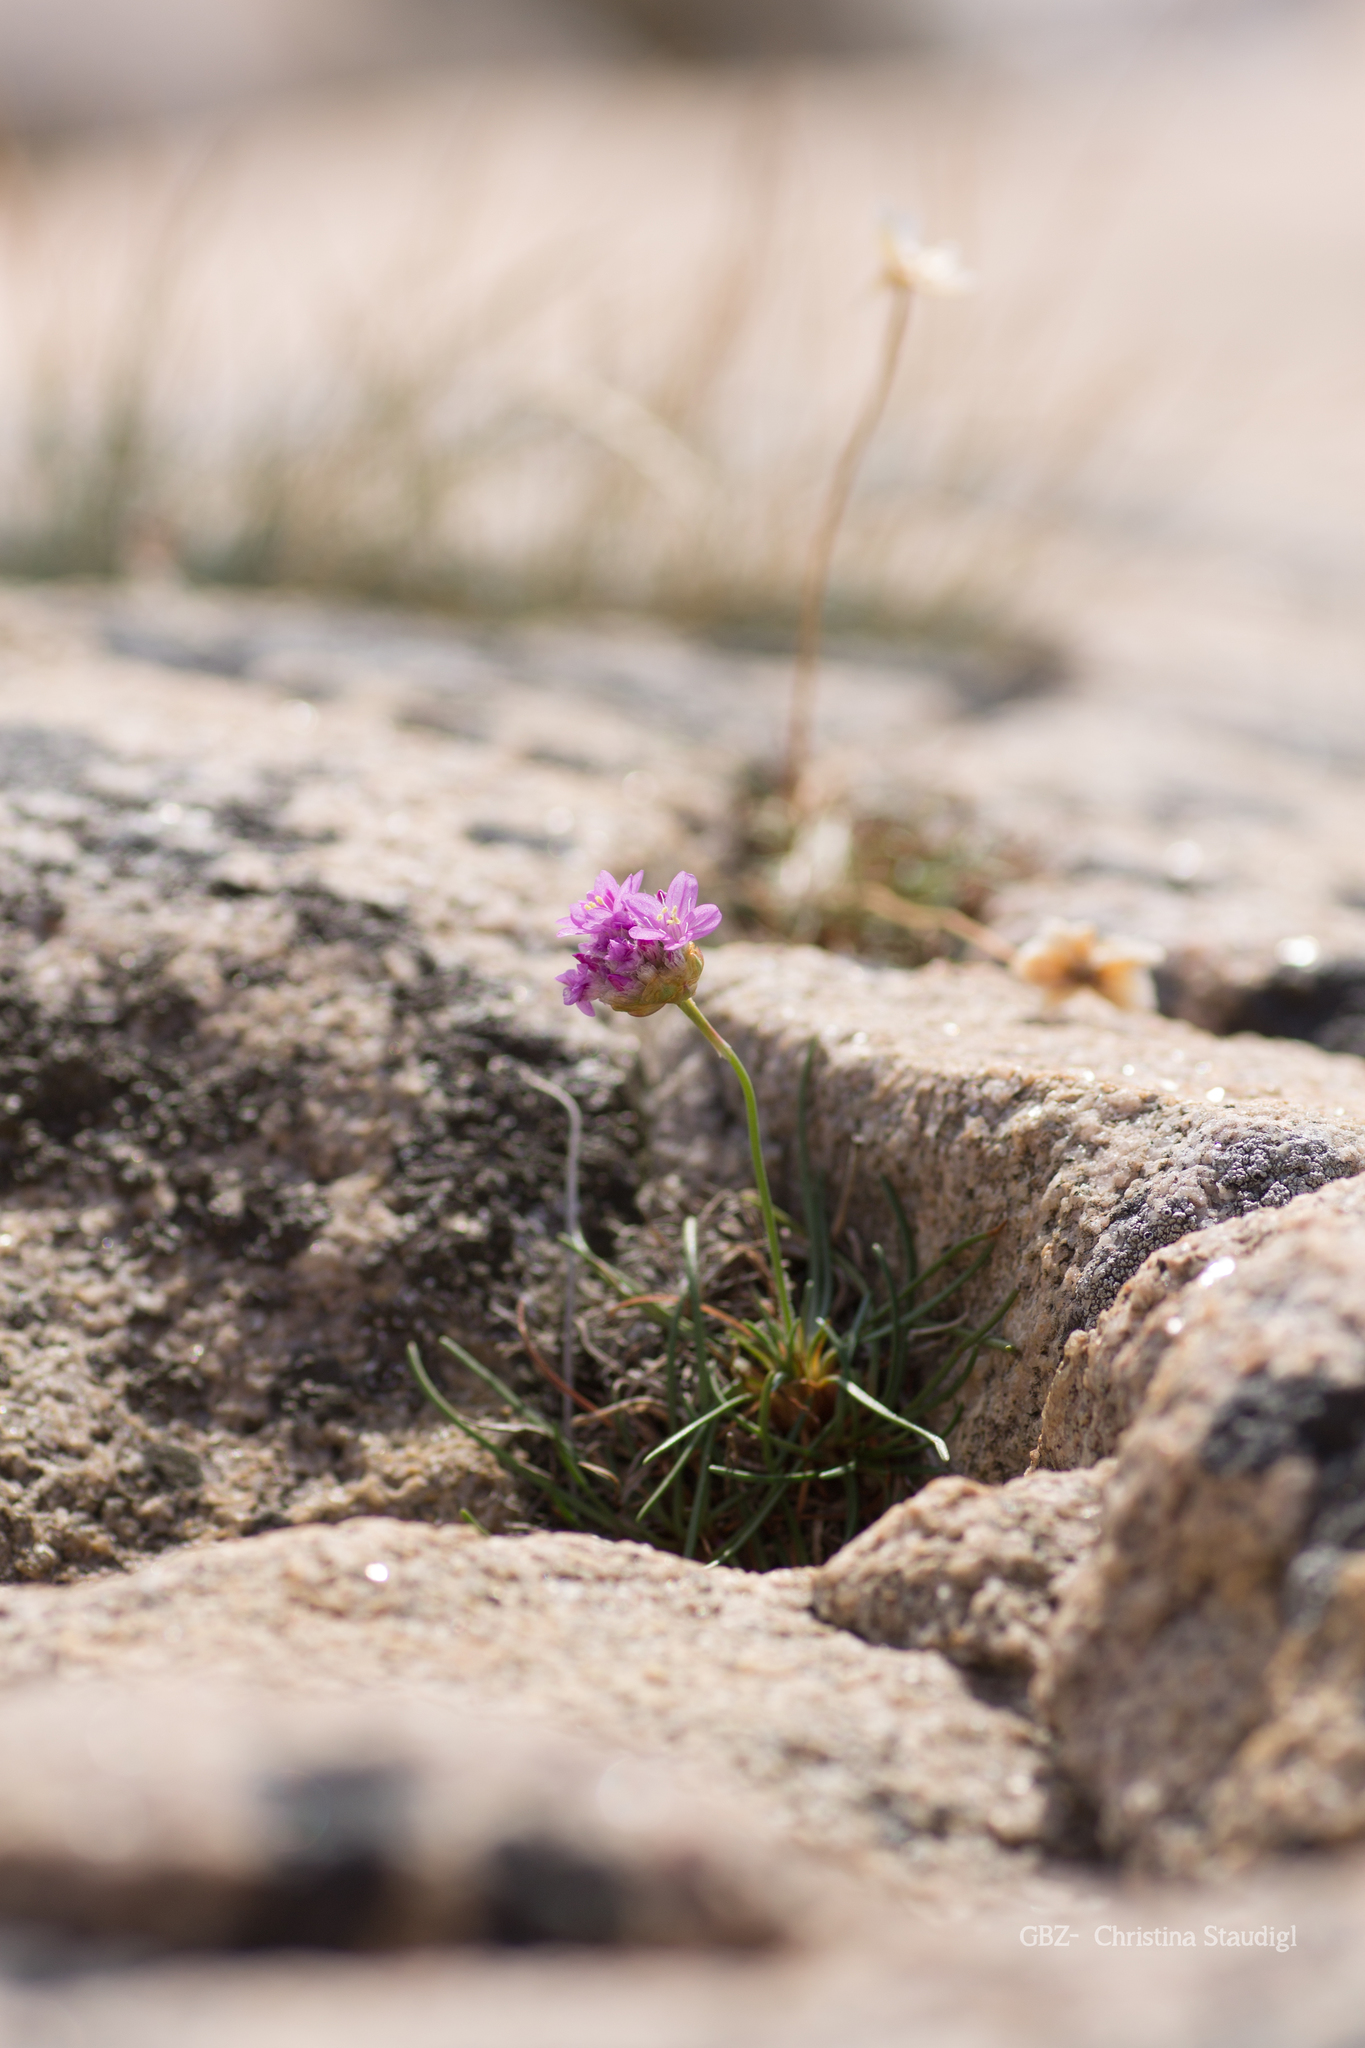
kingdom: Plantae
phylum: Tracheophyta
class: Magnoliopsida
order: Caryophyllales
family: Plumbaginaceae
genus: Armeria
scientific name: Armeria maritima
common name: Thrift
